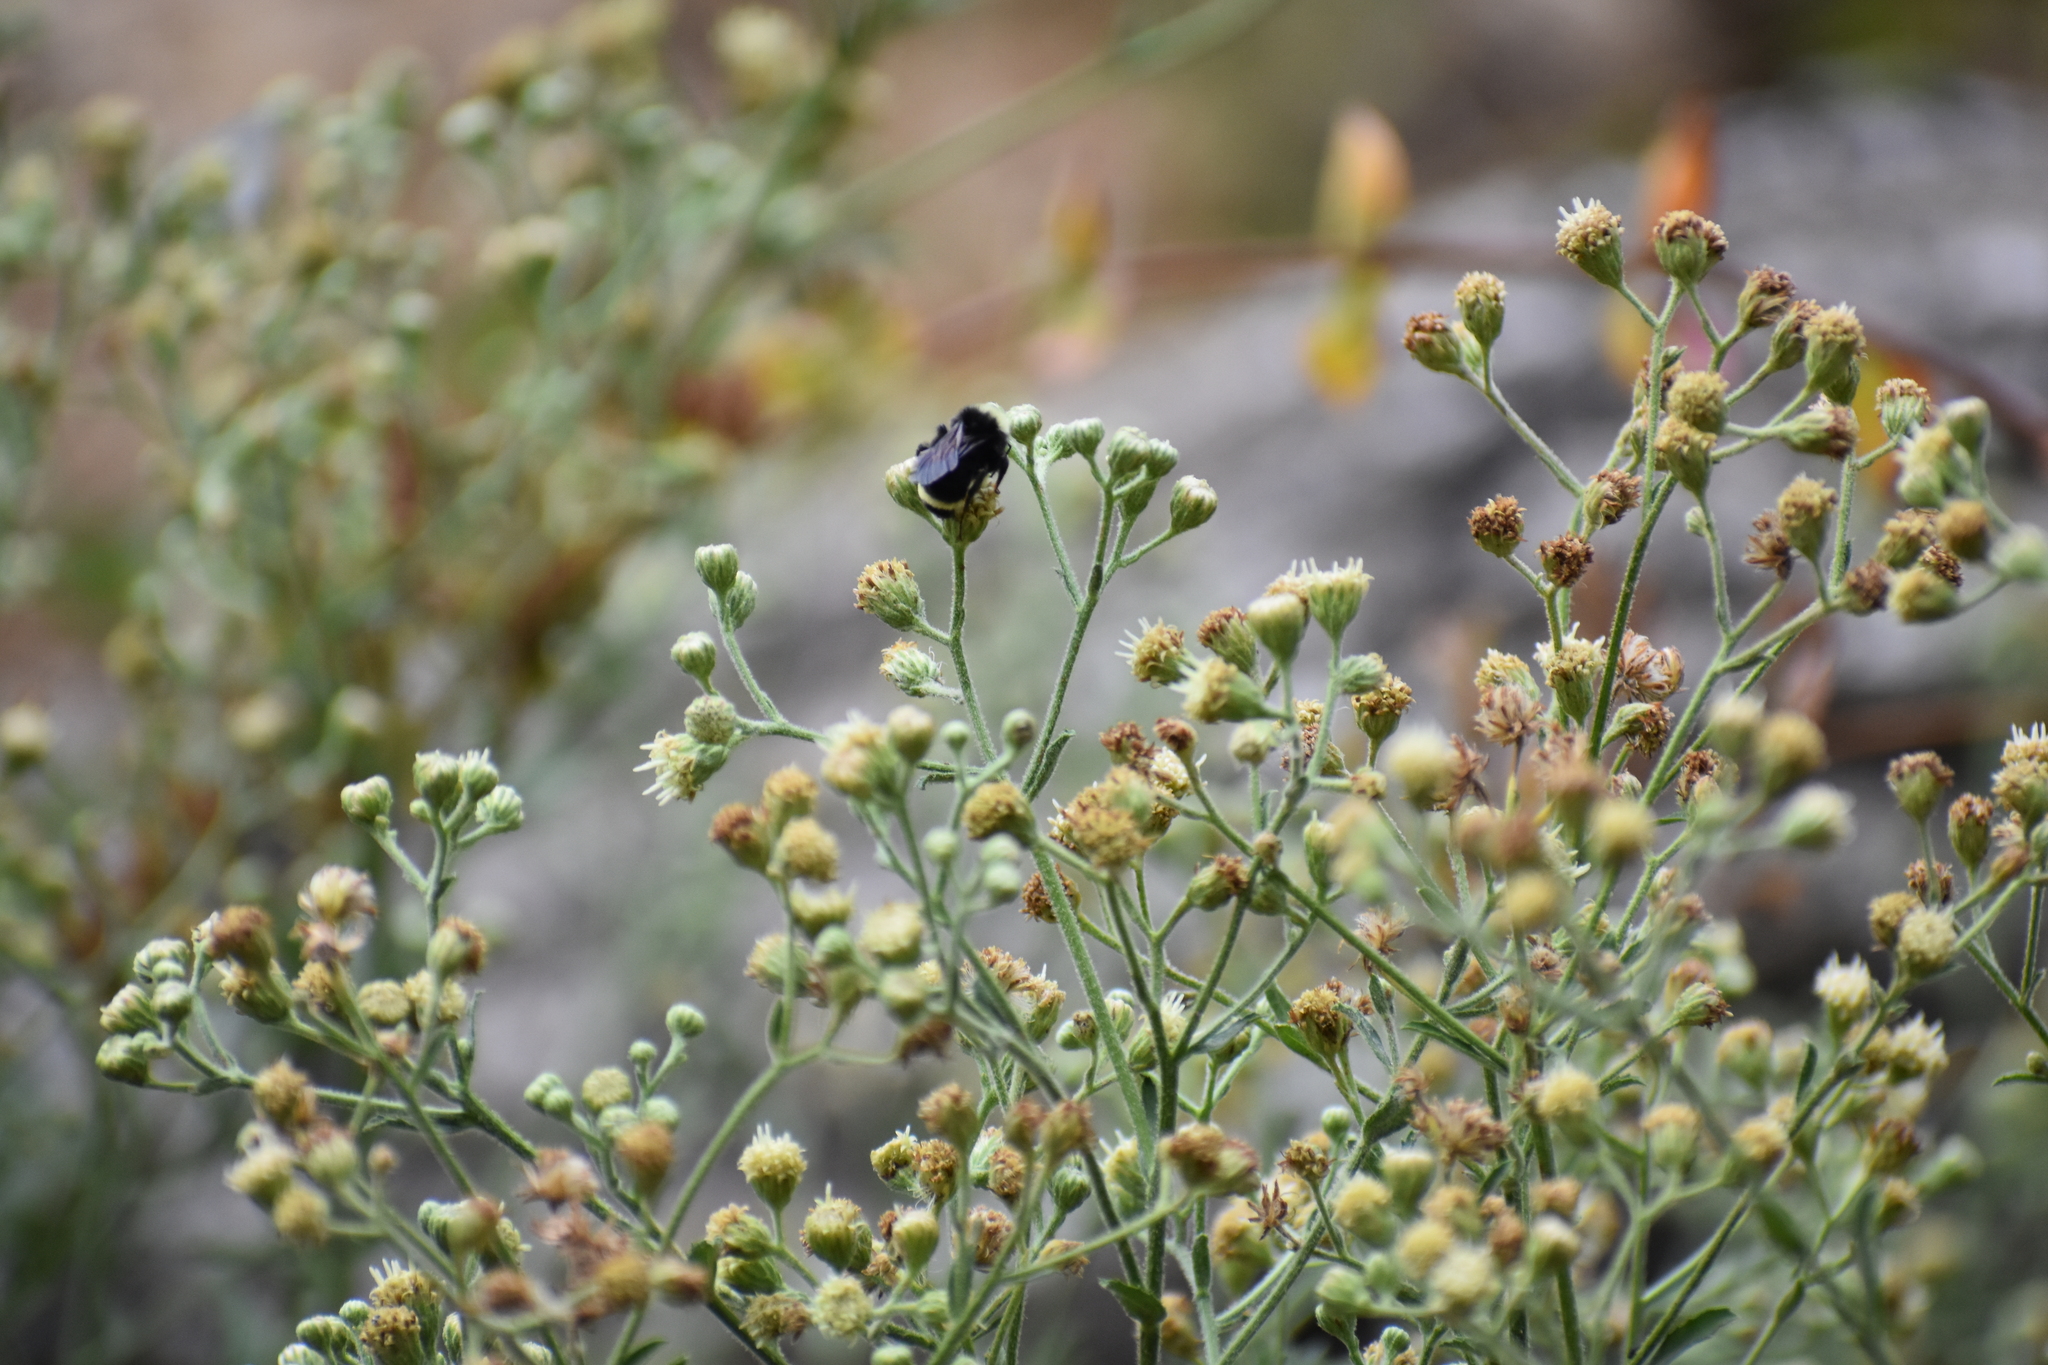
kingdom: Animalia
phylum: Arthropoda
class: Insecta
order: Hymenoptera
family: Apidae
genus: Bombus
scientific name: Bombus vosnesenskii
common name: Vosnesensky bumble bee
